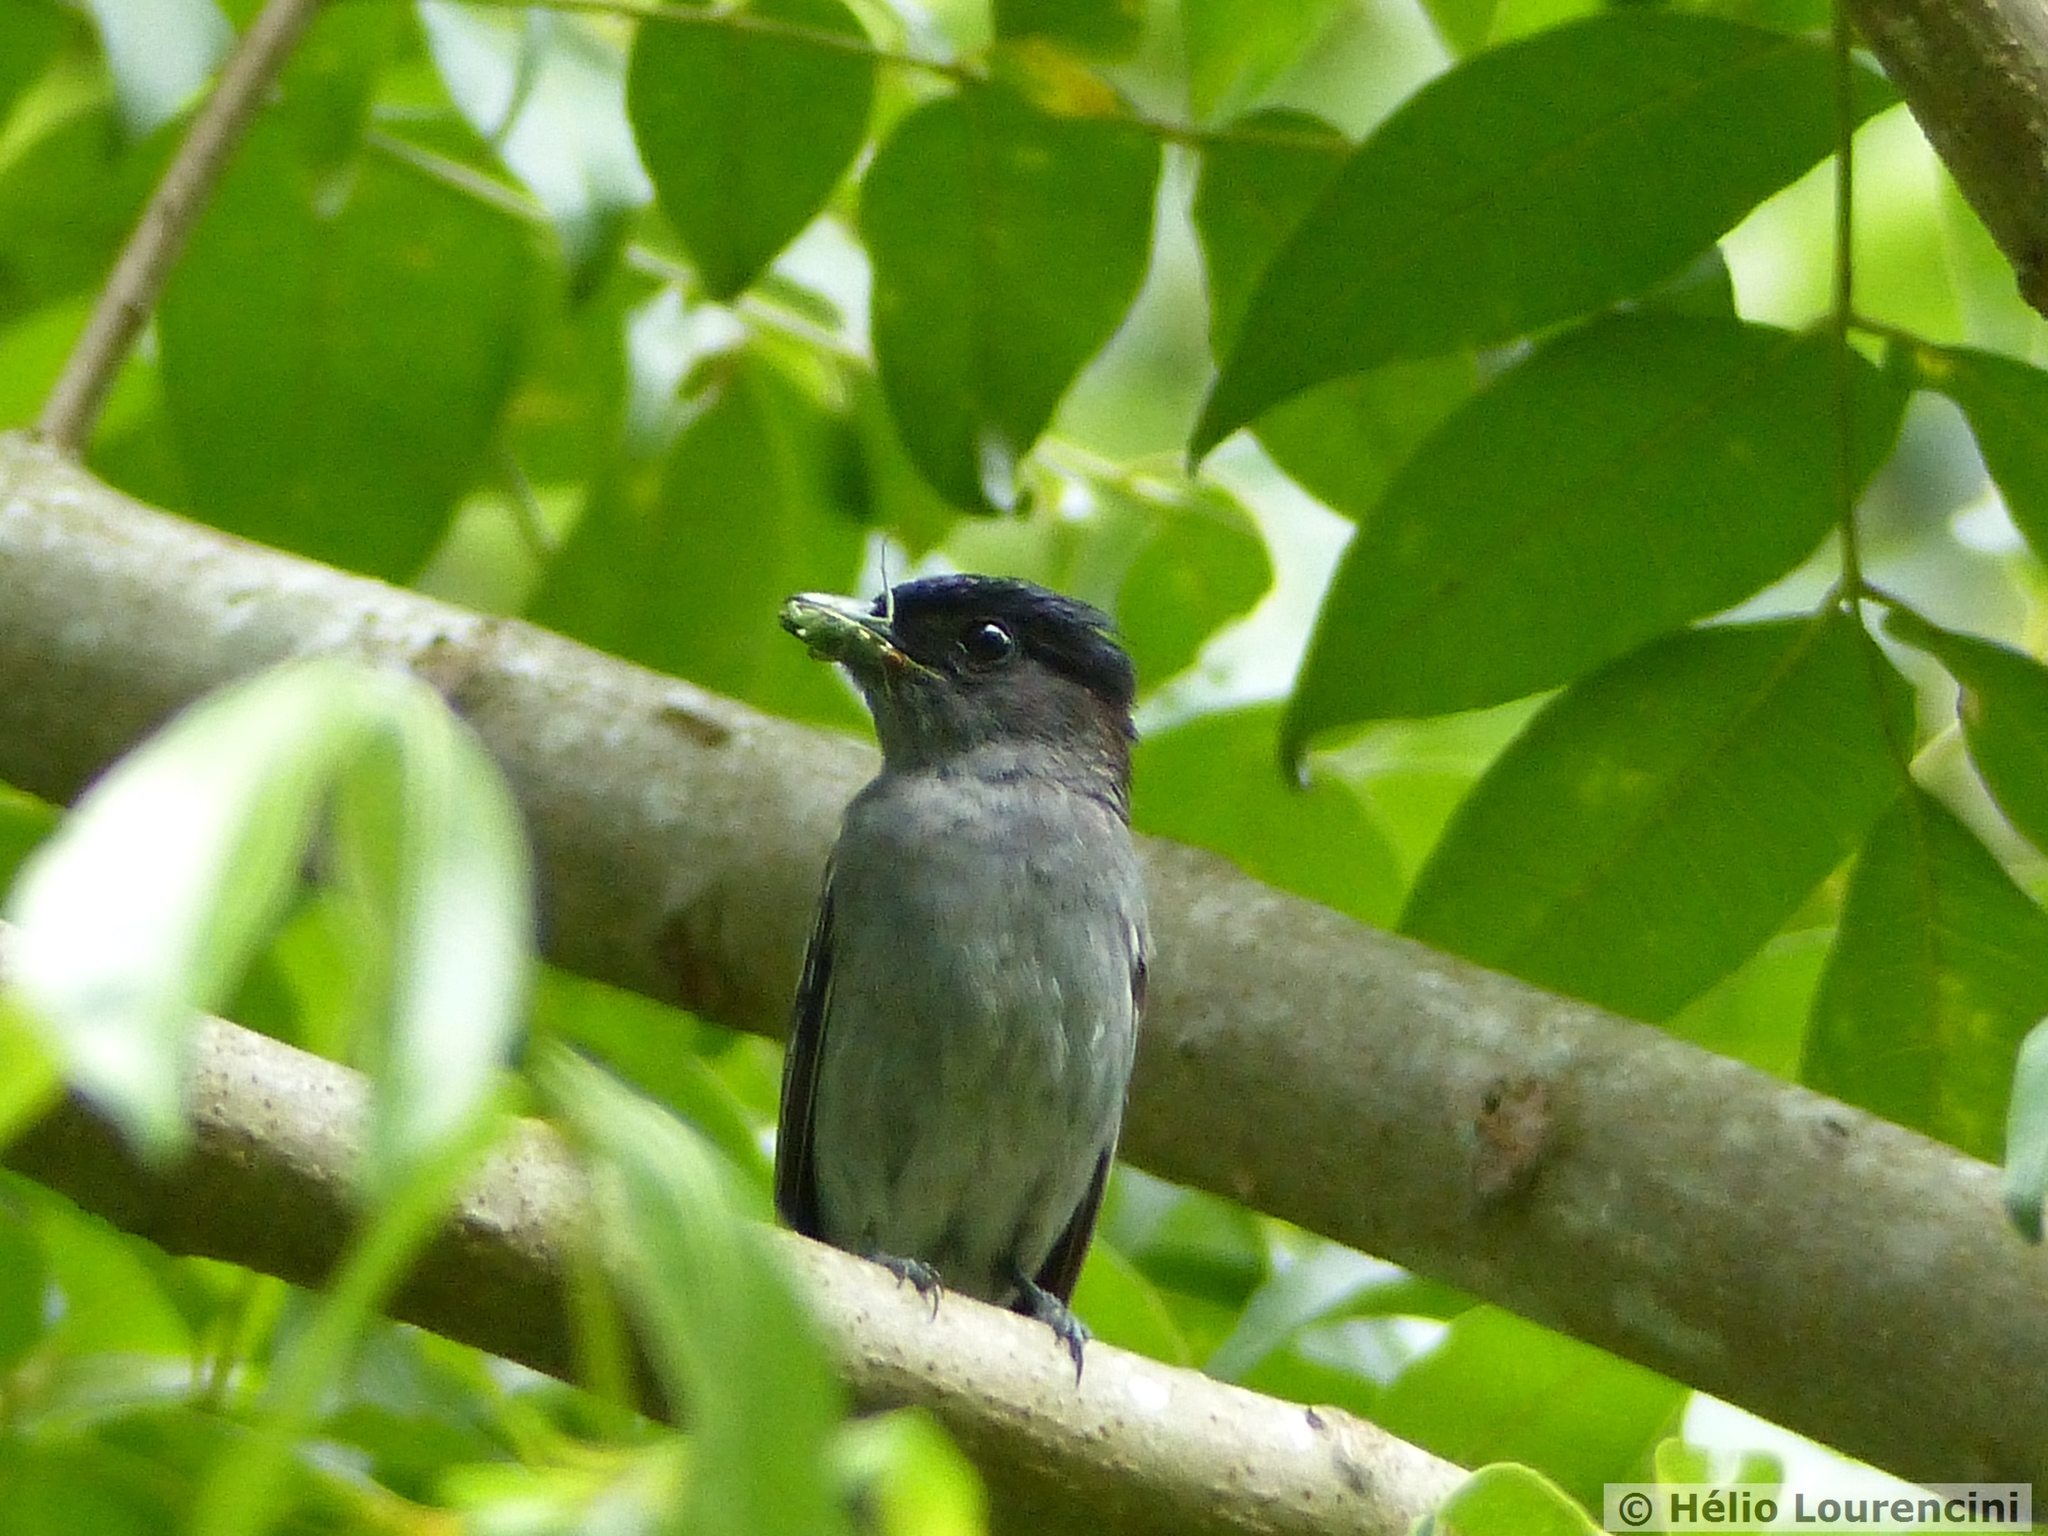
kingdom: Animalia
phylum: Chordata
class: Aves
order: Passeriformes
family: Cotingidae
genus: Pachyramphus
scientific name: Pachyramphus polychopterus
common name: White-winged becard
